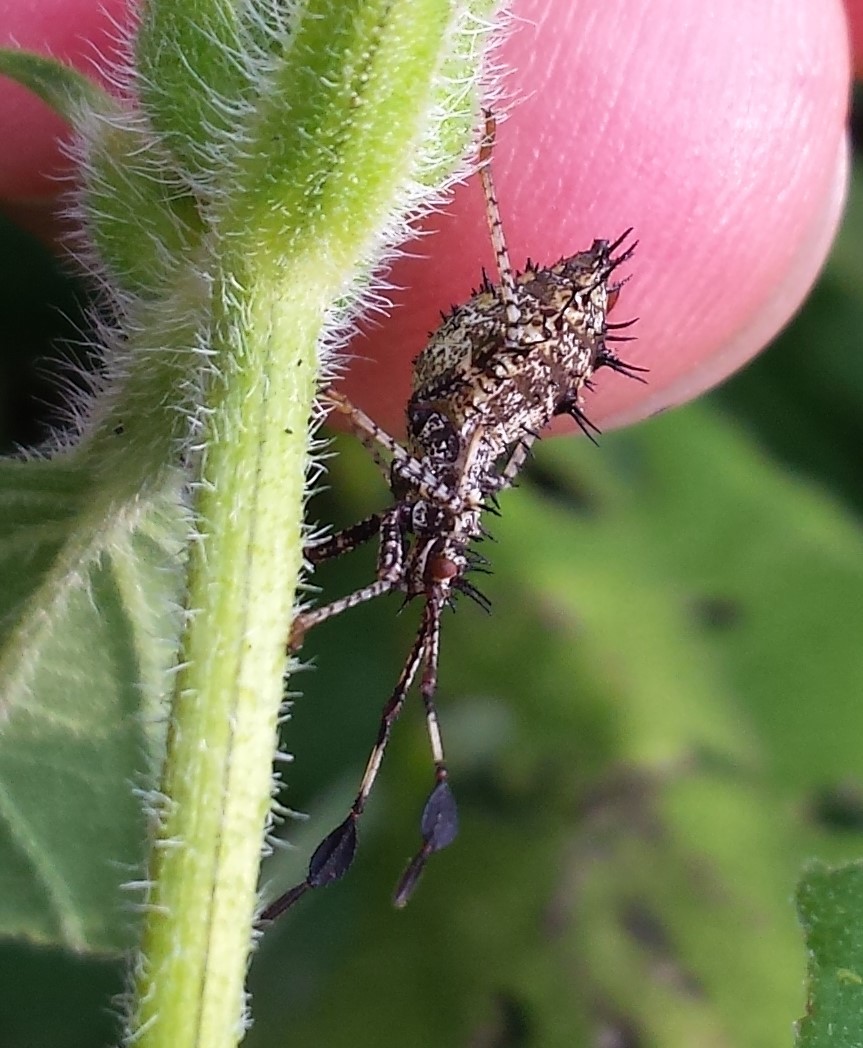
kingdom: Animalia
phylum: Arthropoda
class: Insecta
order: Hemiptera
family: Coreidae
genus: Euthochtha
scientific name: Euthochtha galeator
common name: Helmeted squash bug
